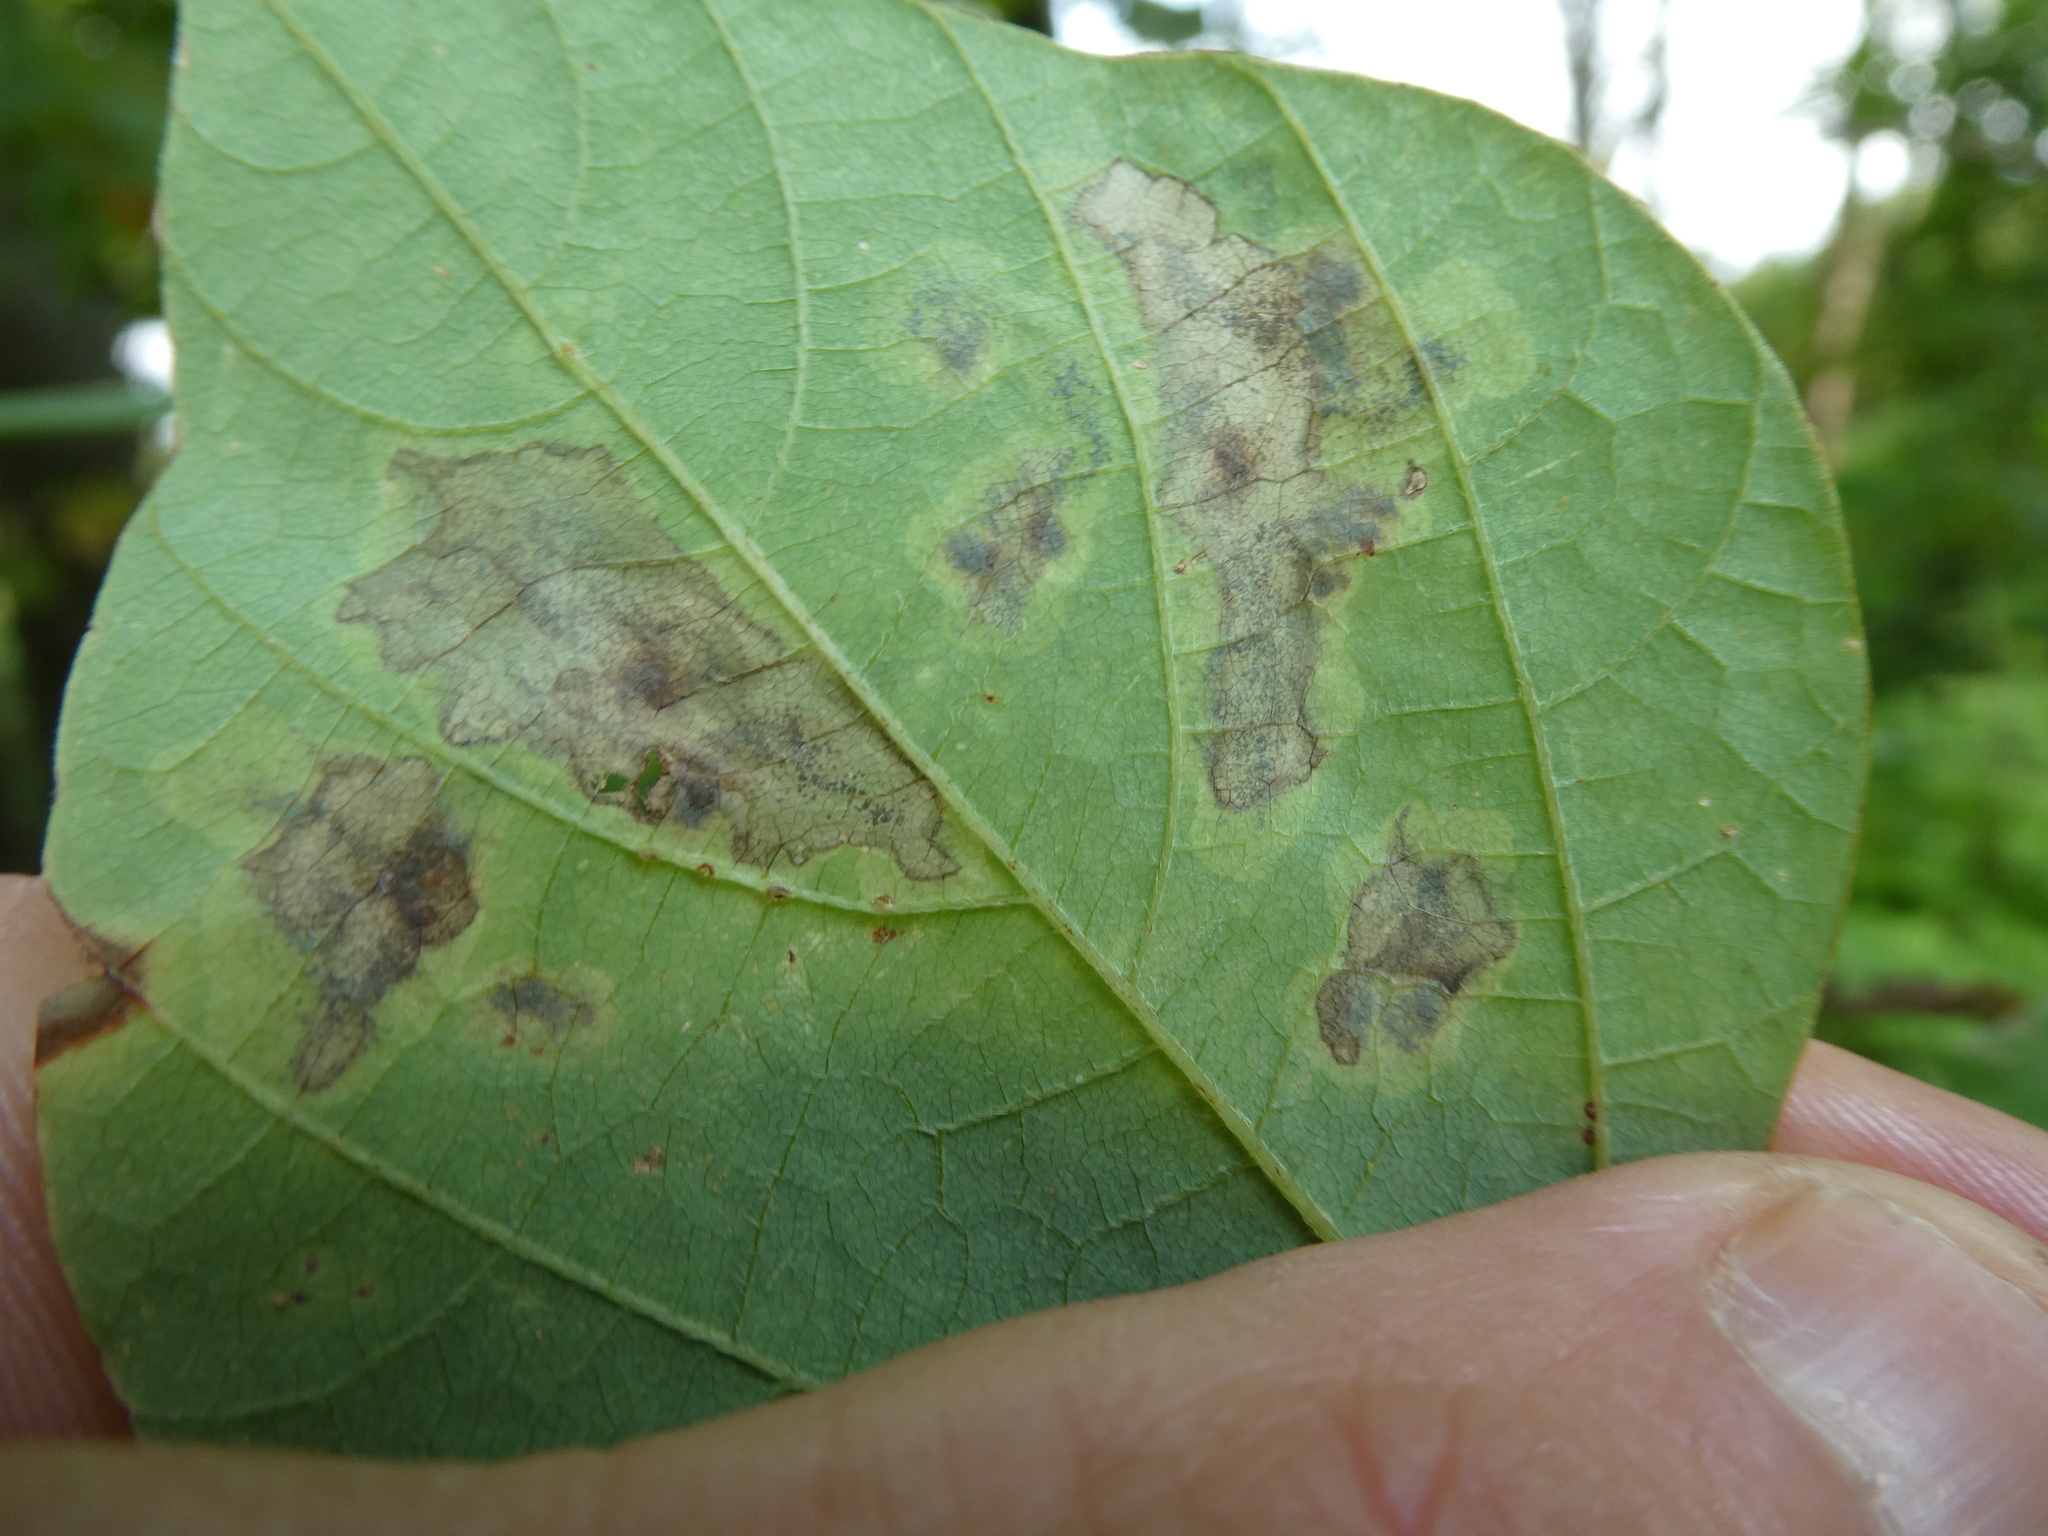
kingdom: Plantae
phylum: Tracheophyta
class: Magnoliopsida
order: Fabales
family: Fabaceae
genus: Amphicarpaea
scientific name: Amphicarpaea bracteata
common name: American hog peanut
